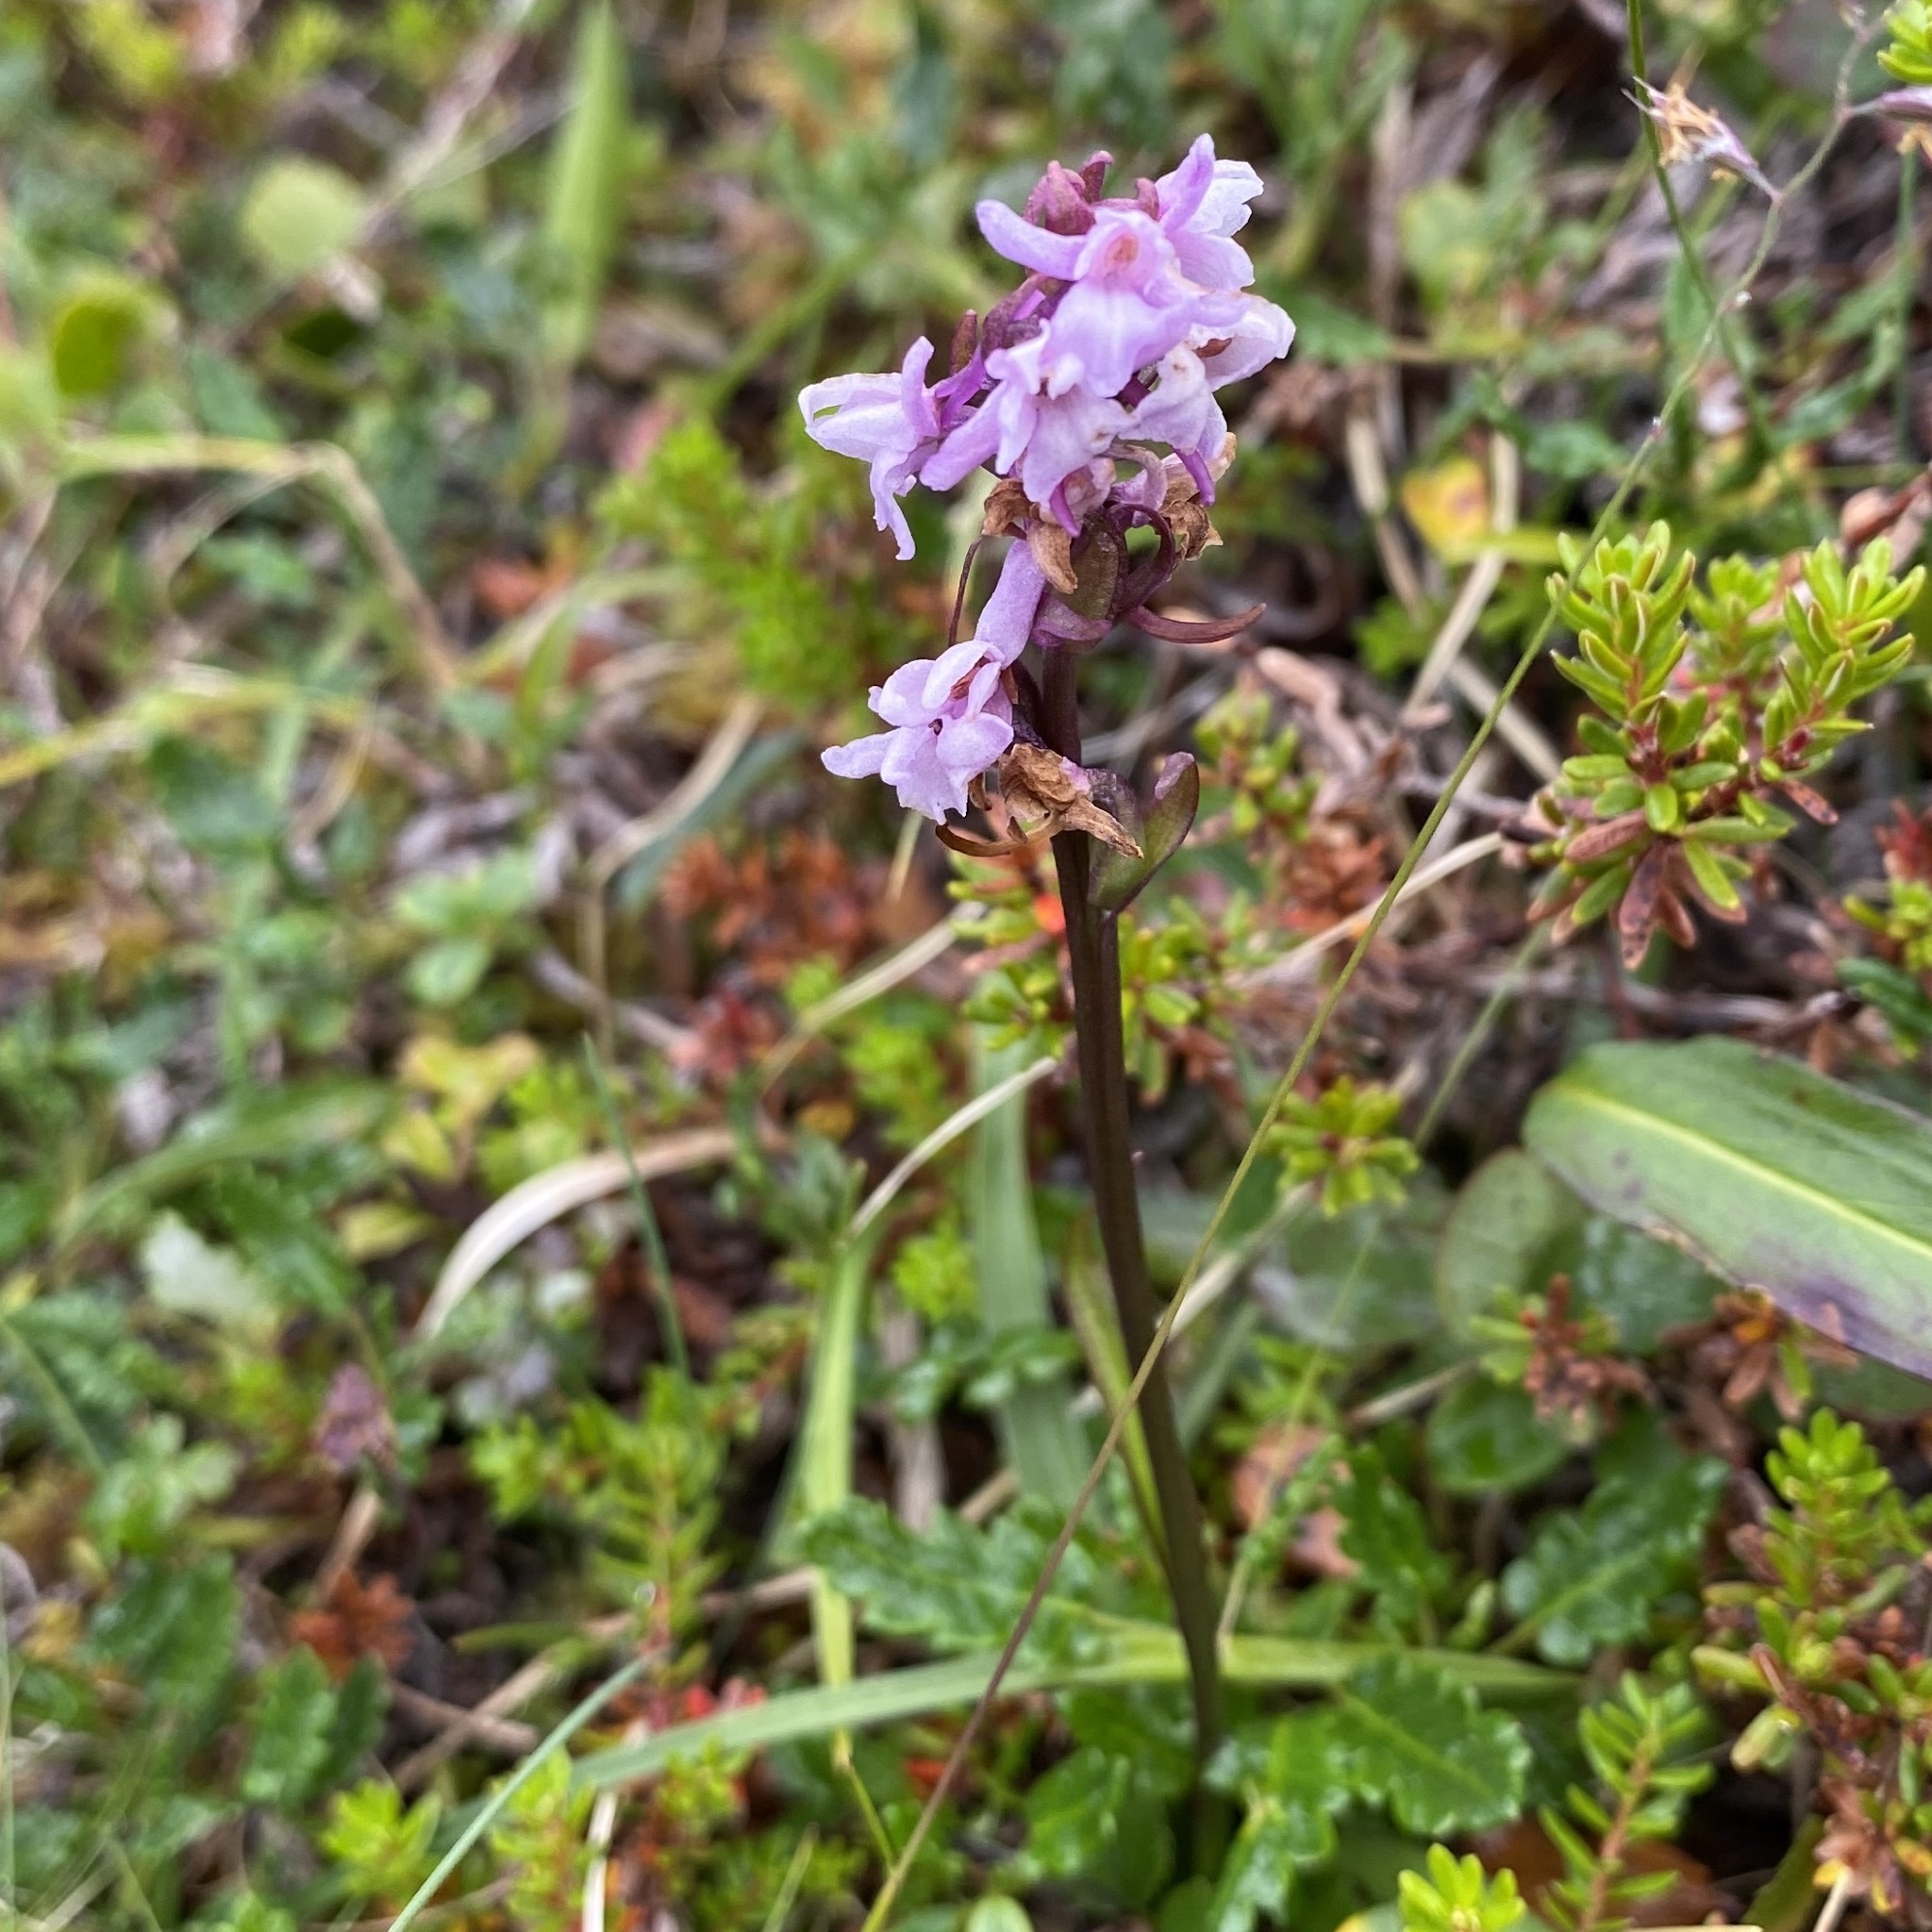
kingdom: Plantae
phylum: Tracheophyta
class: Liliopsida
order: Asparagales
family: Orchidaceae
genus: Gymnadenia
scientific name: Gymnadenia conopsea
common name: Fragrant orchid
